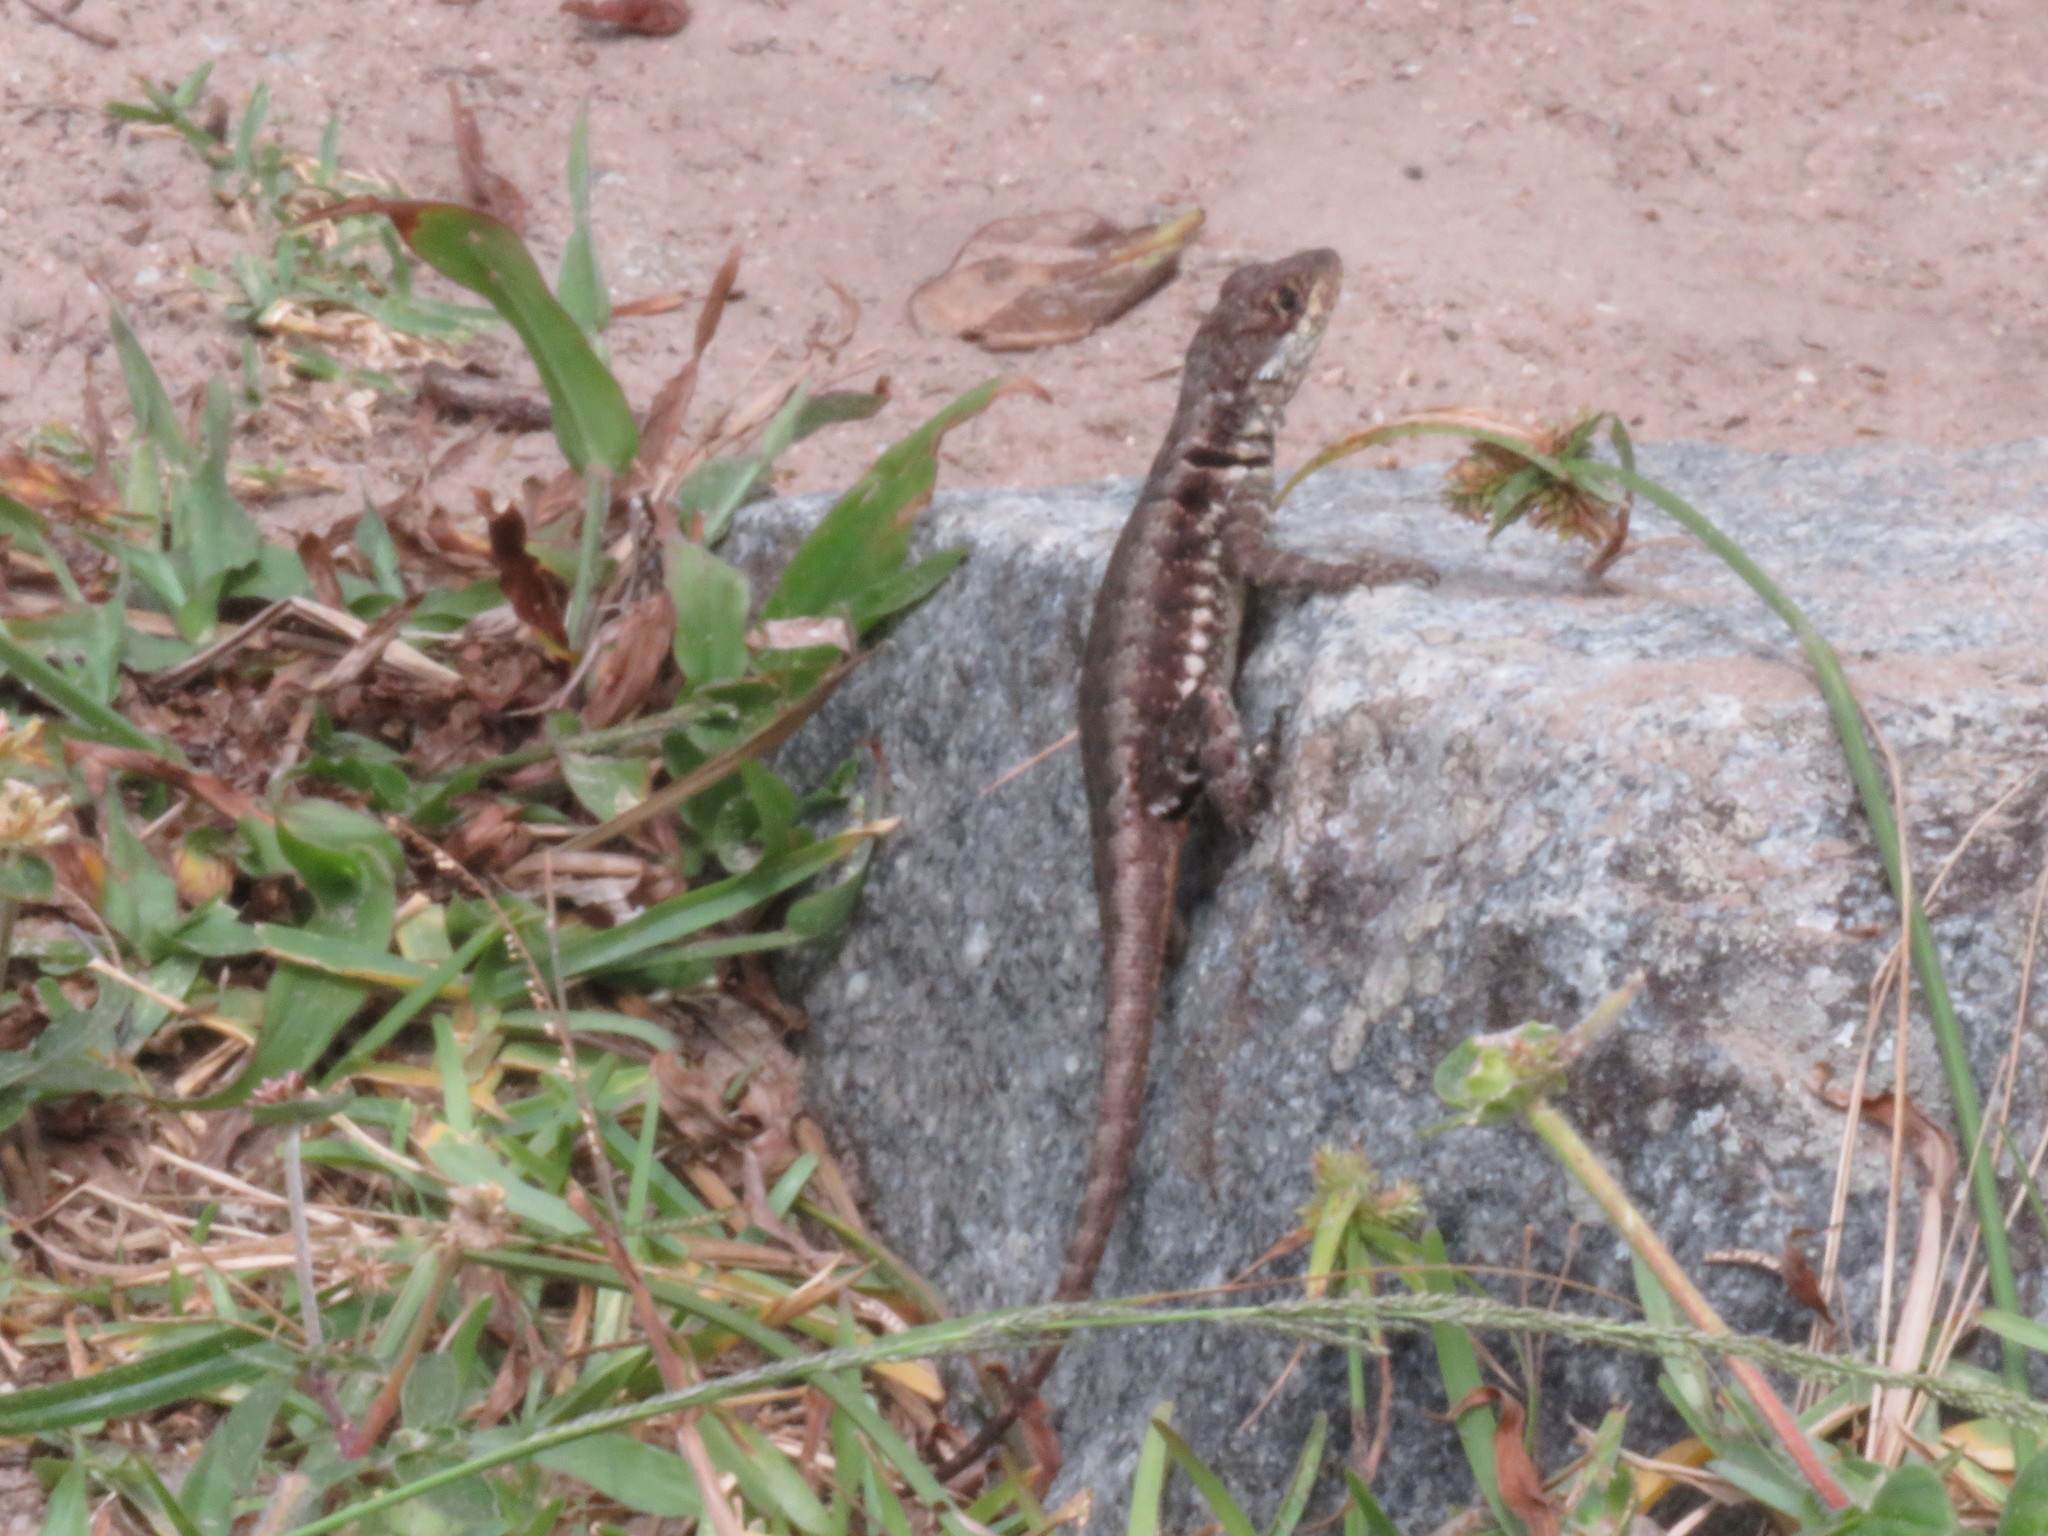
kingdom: Animalia
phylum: Chordata
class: Squamata
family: Tropiduridae
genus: Tropidurus
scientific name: Tropidurus imbituba
